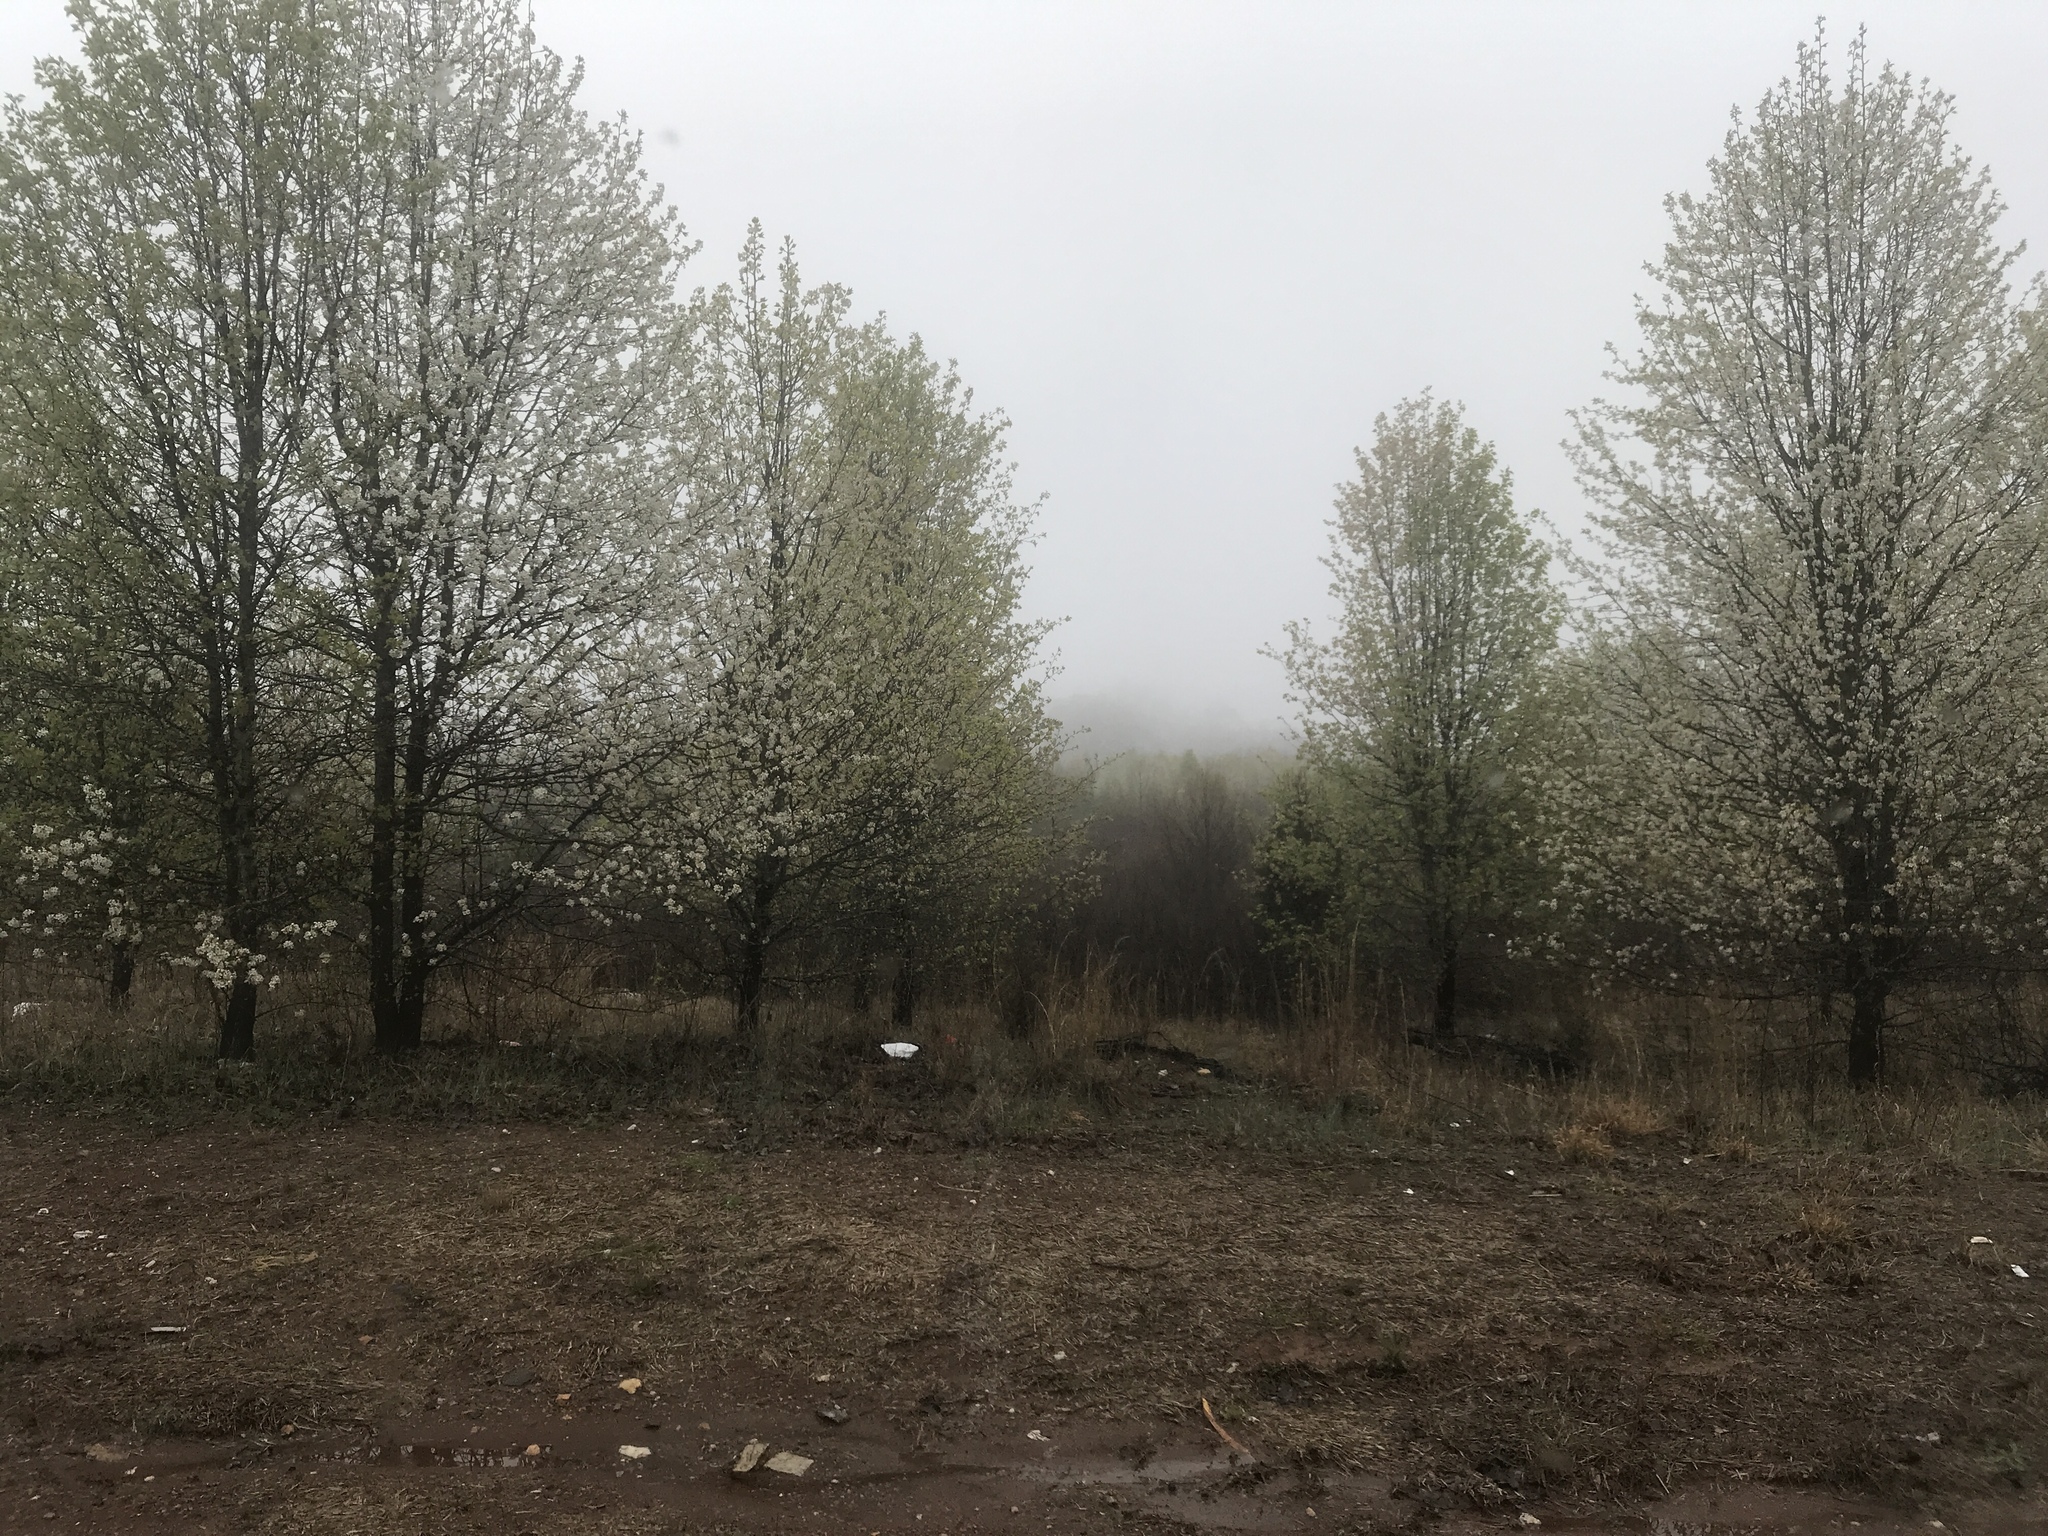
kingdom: Plantae
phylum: Tracheophyta
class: Magnoliopsida
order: Rosales
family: Rosaceae
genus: Pyrus
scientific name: Pyrus calleryana
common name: Callery pear
